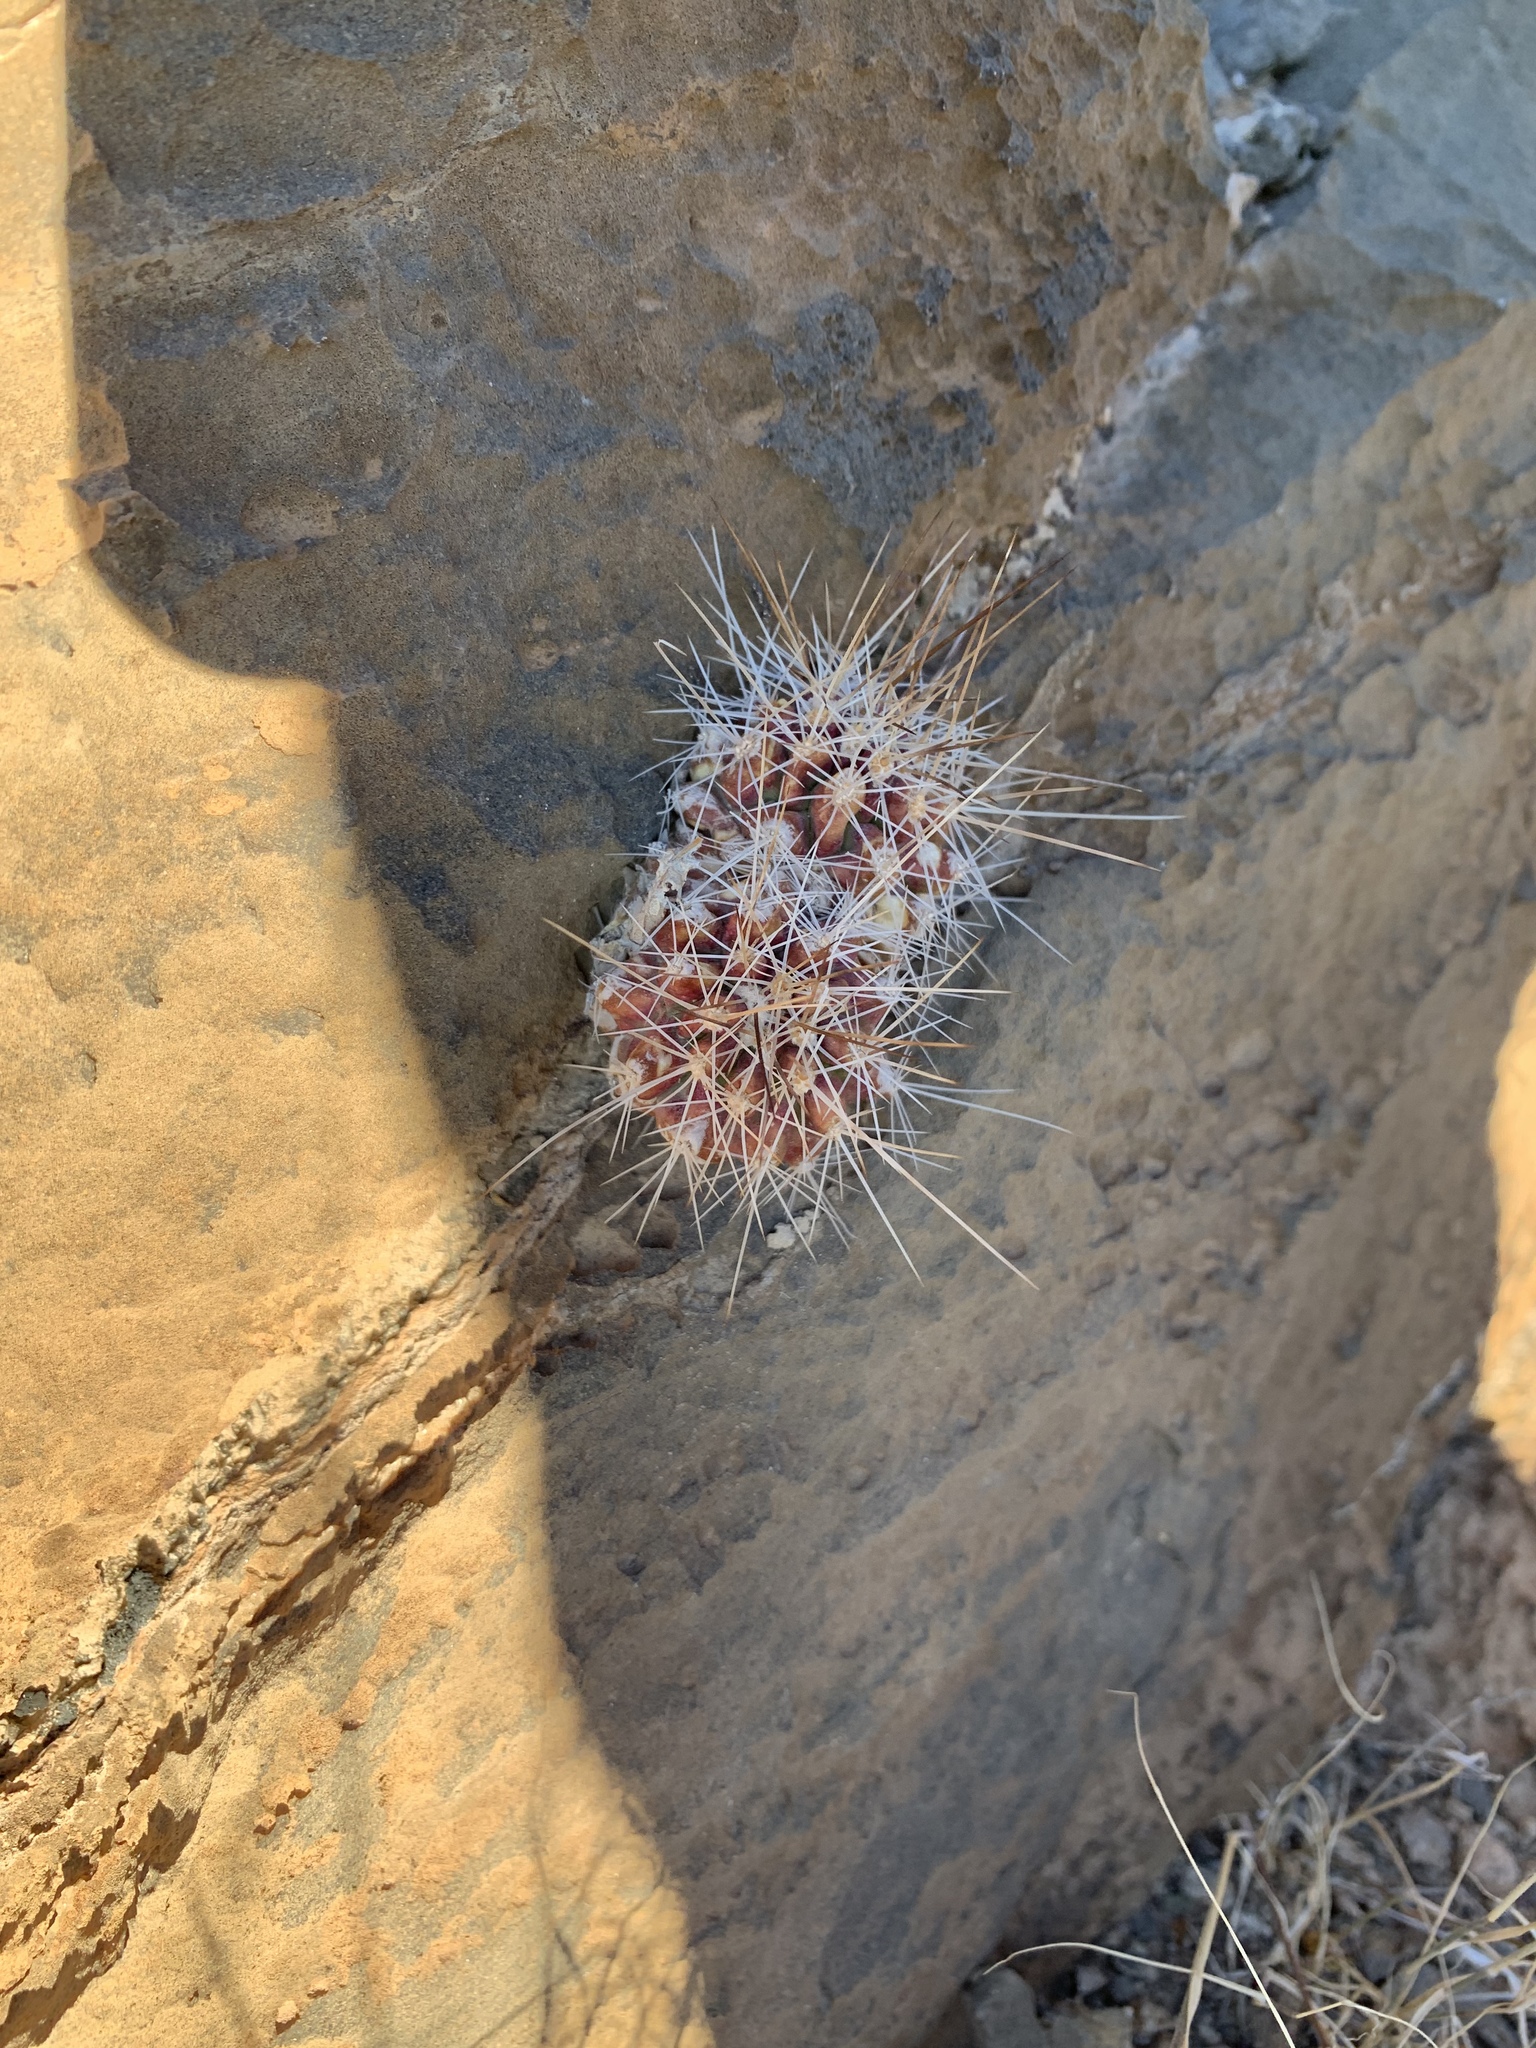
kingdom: Plantae
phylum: Tracheophyta
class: Magnoliopsida
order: Caryophyllales
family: Cactaceae
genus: Echinocereus
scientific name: Echinocereus stramineus
